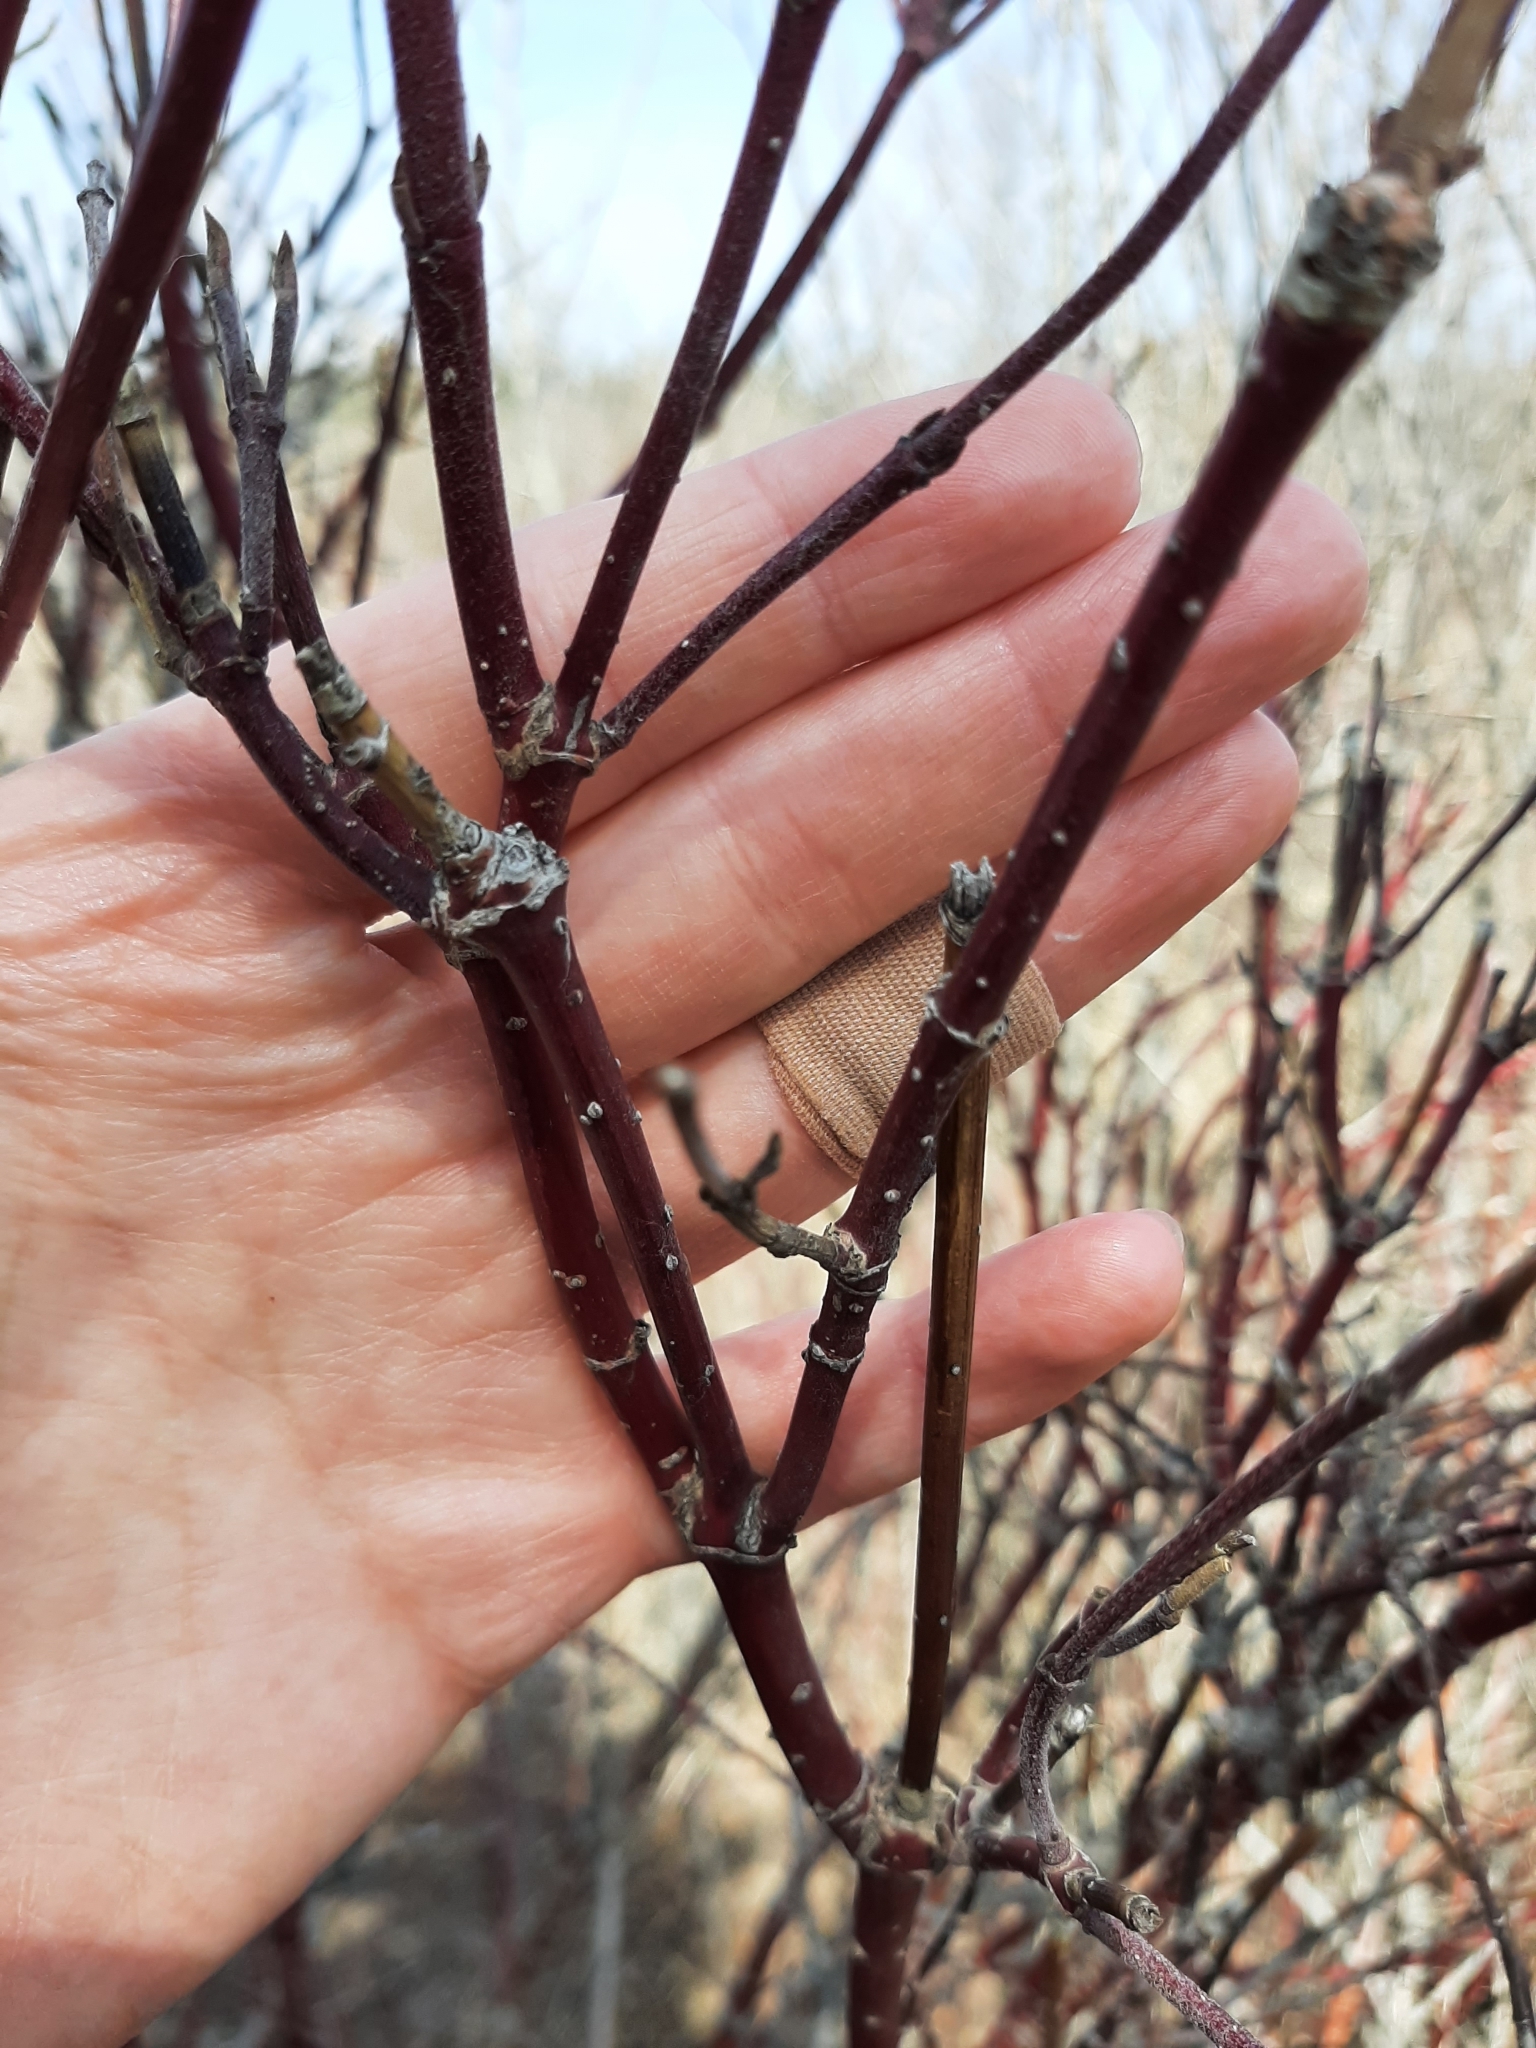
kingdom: Plantae
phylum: Tracheophyta
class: Magnoliopsida
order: Cornales
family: Cornaceae
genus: Cornus
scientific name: Cornus sericea
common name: Red-osier dogwood
